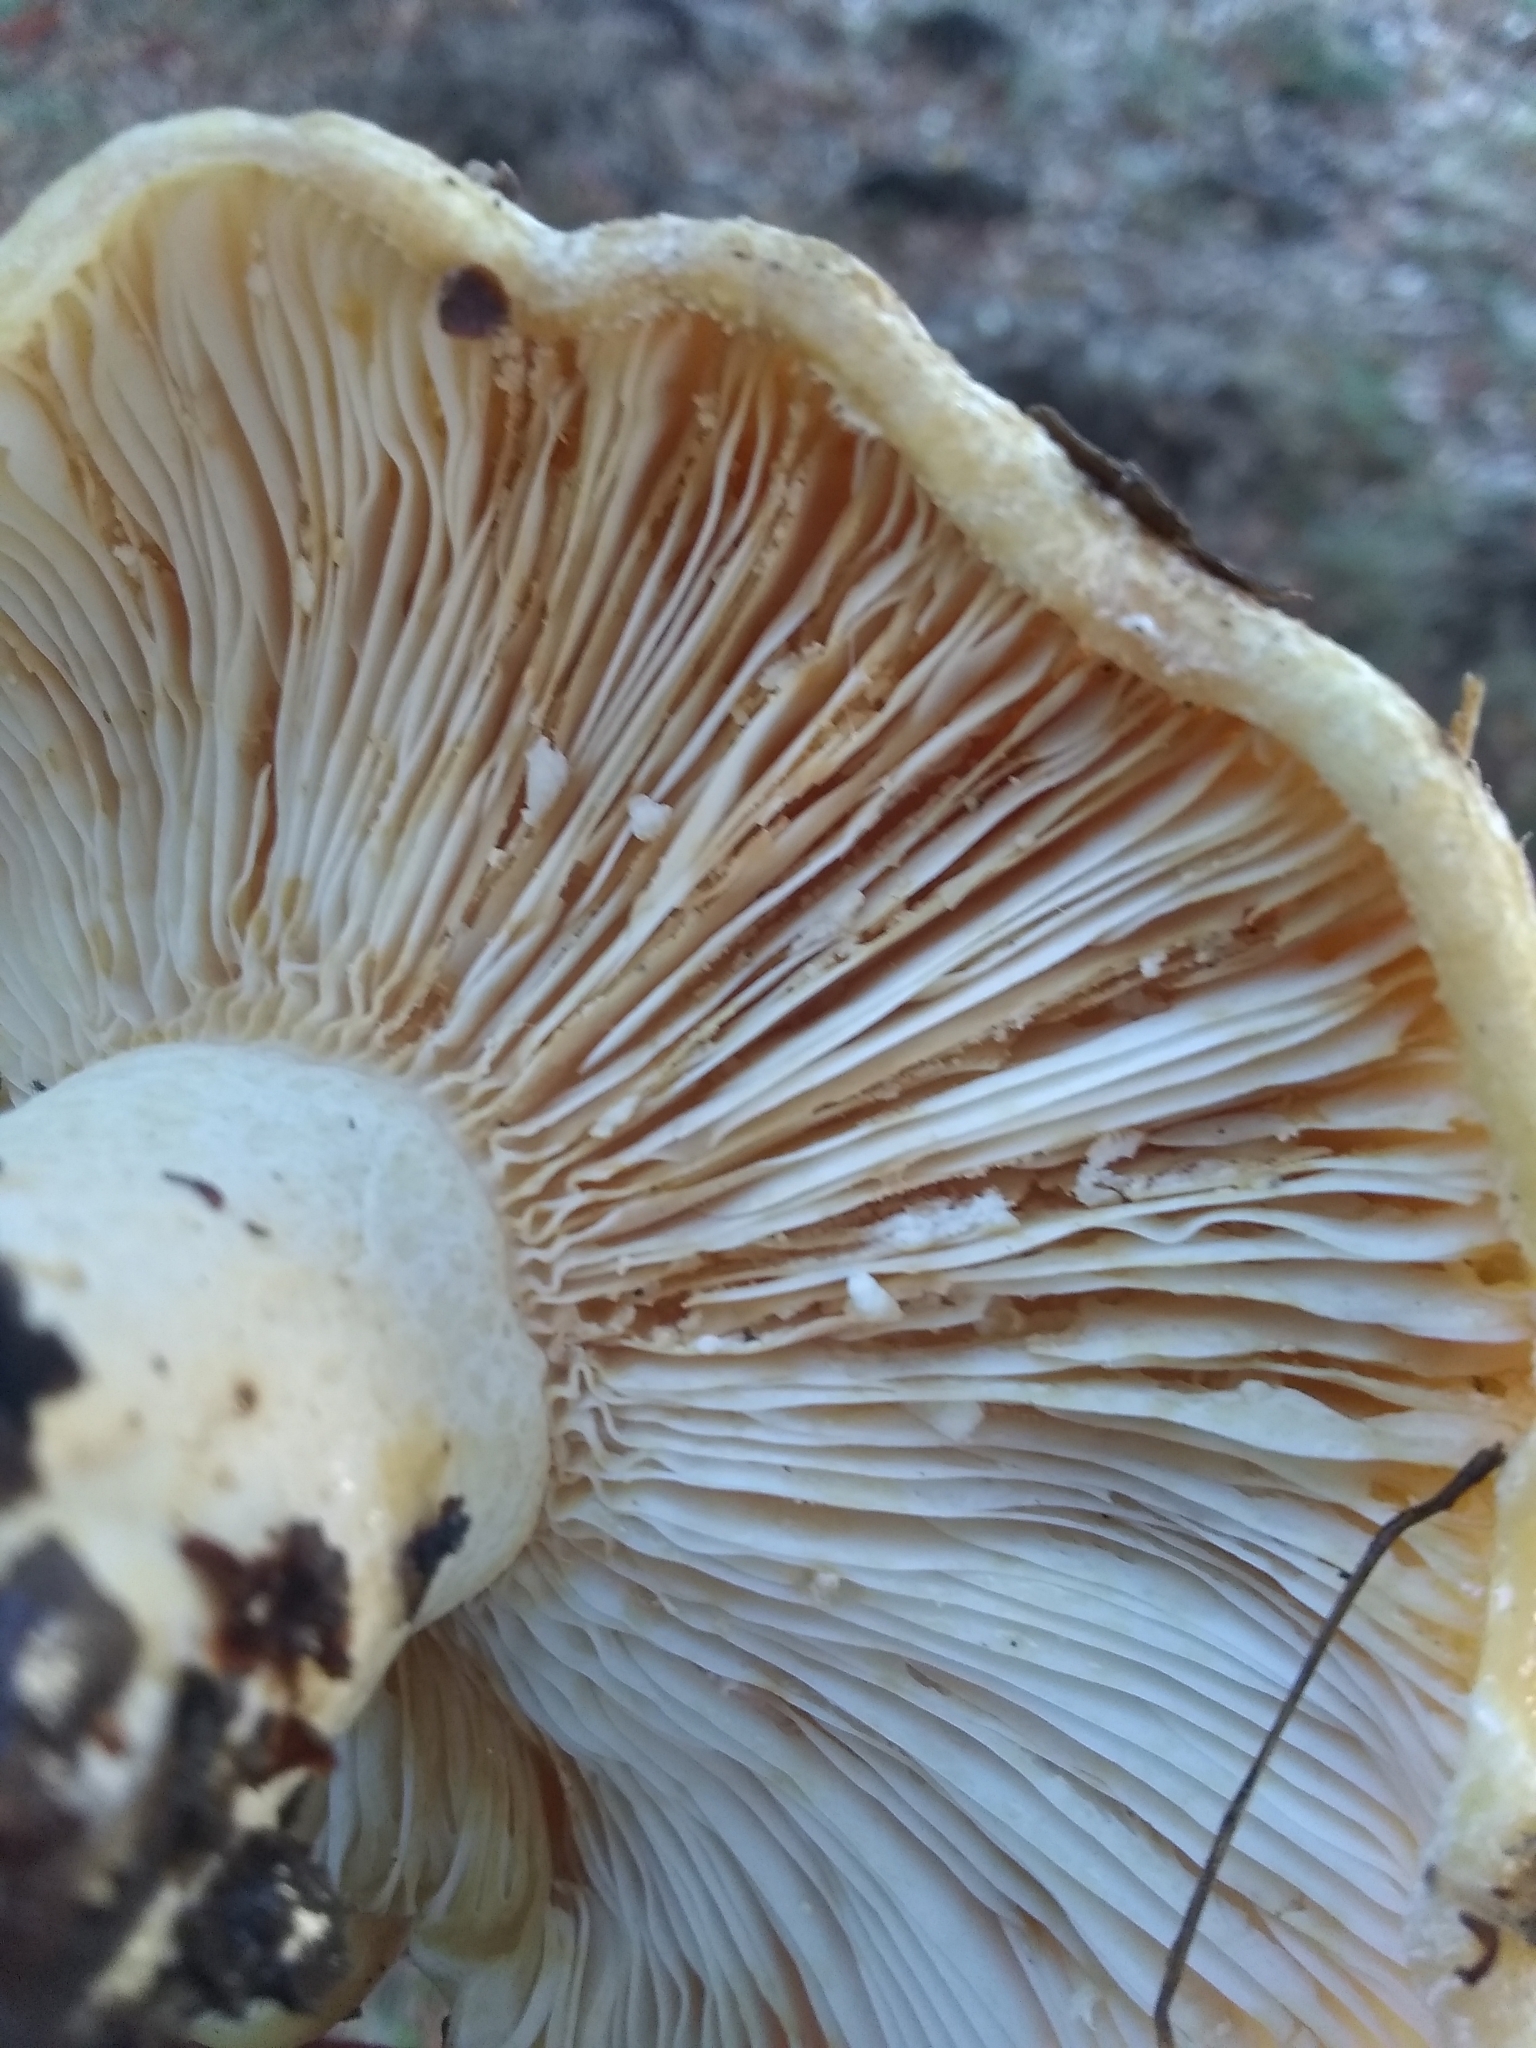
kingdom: Fungi
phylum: Basidiomycota
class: Agaricomycetes
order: Russulales
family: Russulaceae
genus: Lactarius
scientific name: Lactarius alnicola
